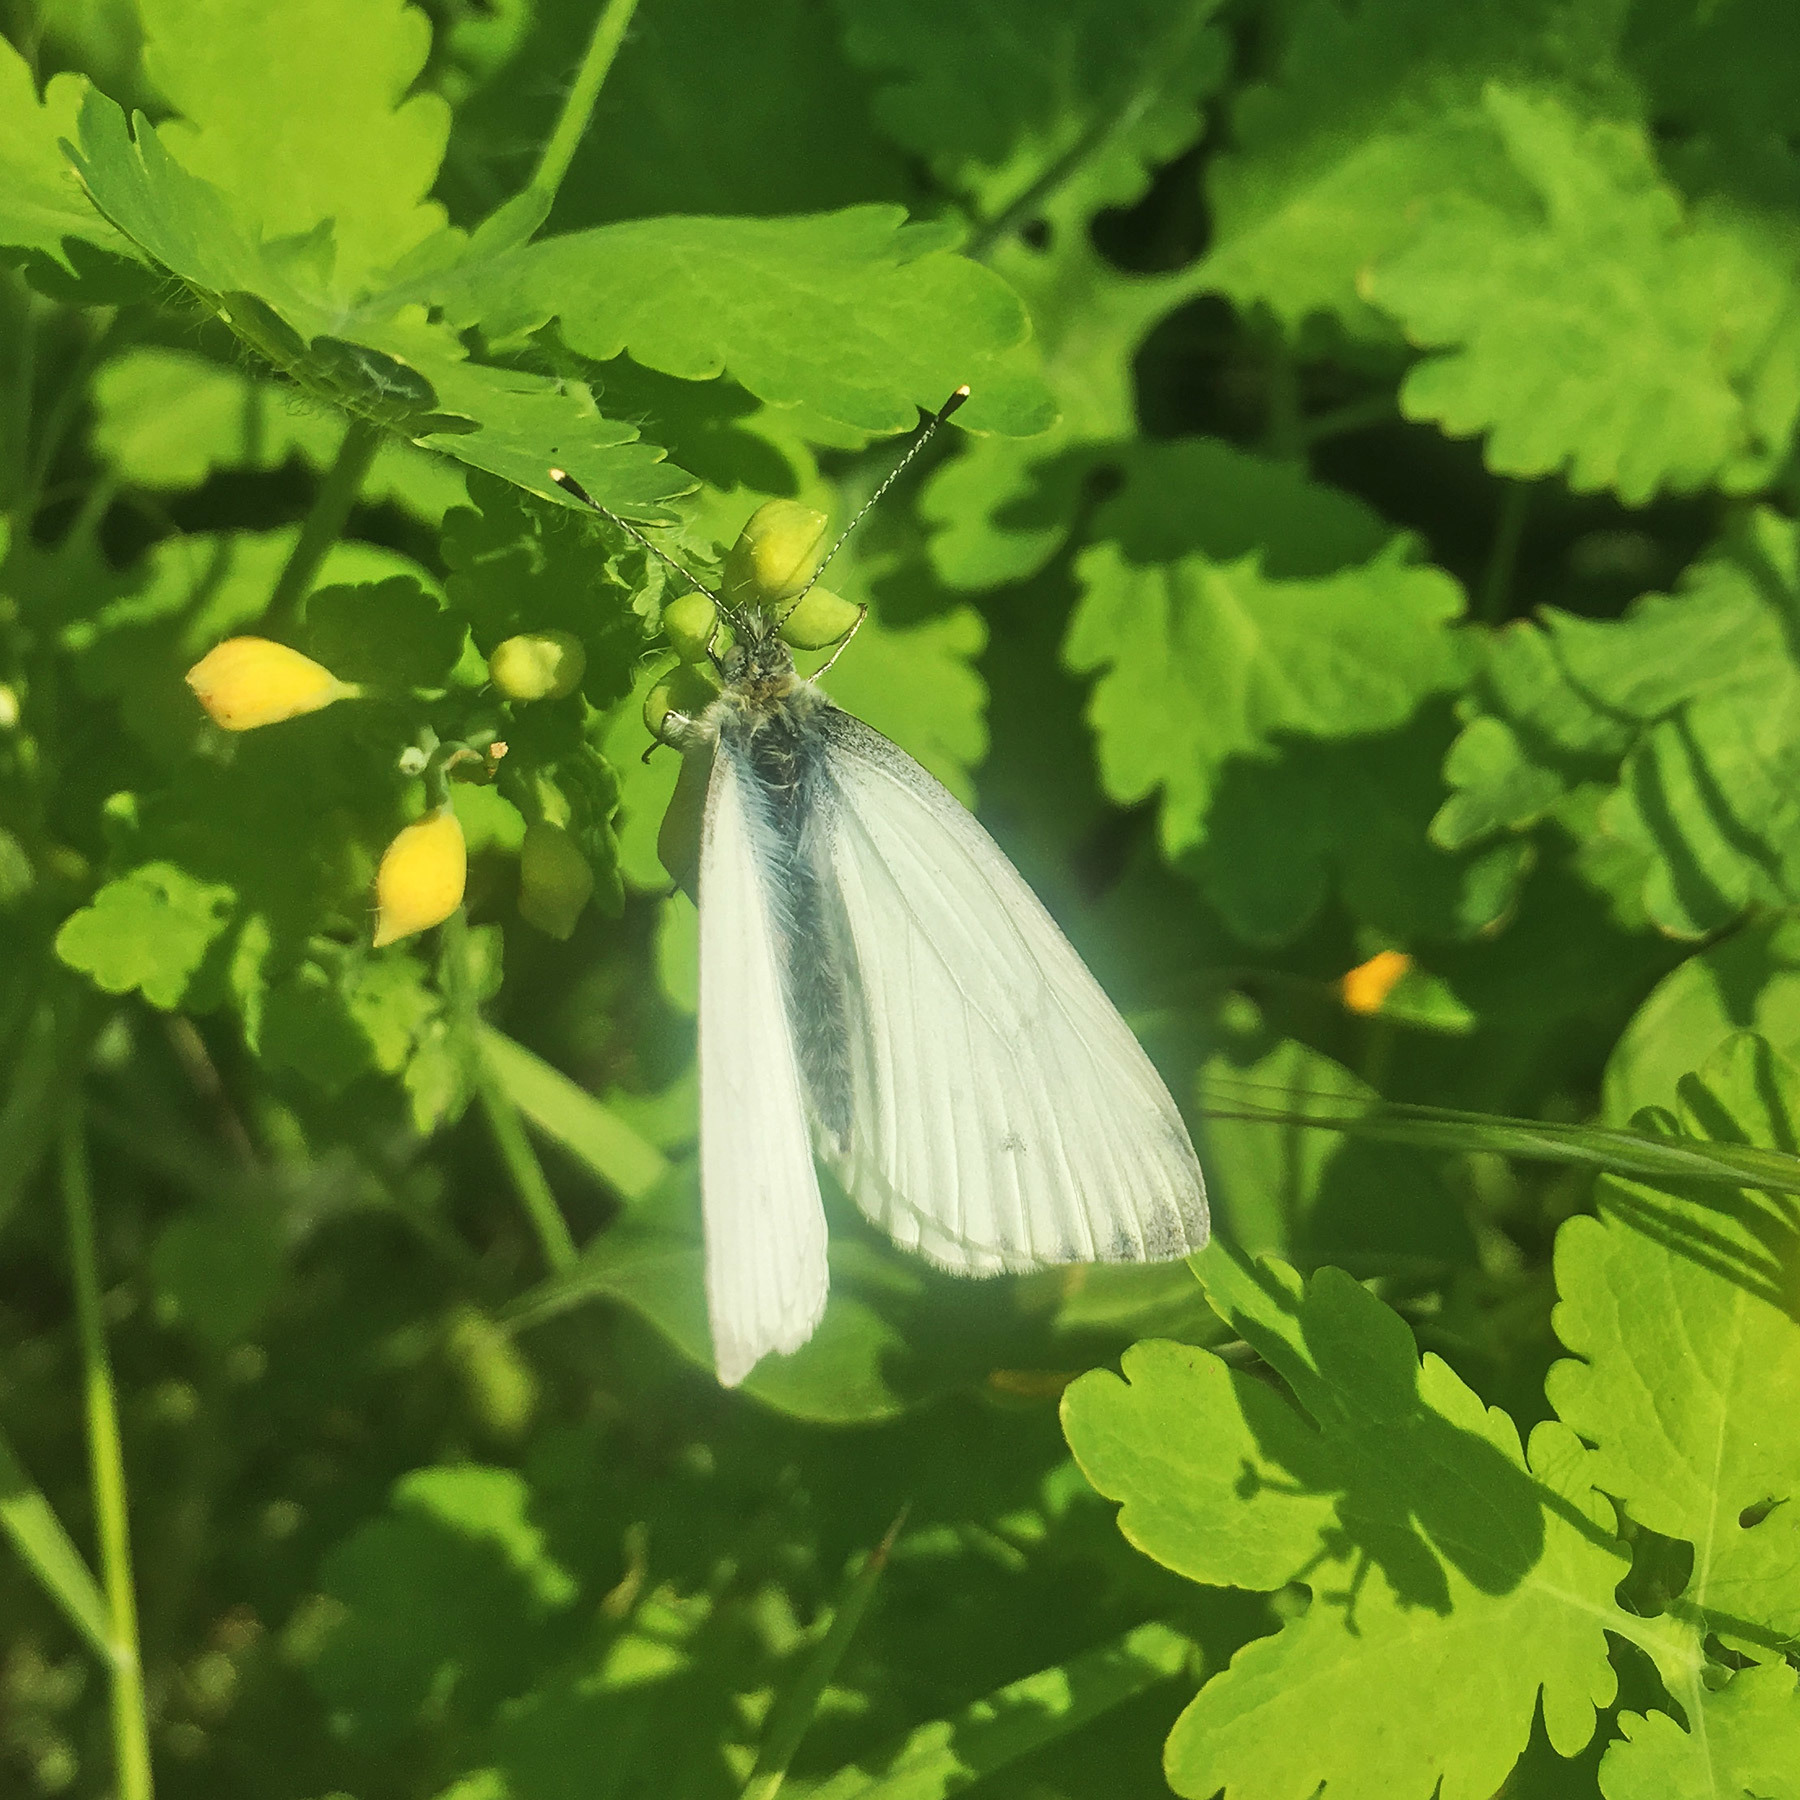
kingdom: Animalia
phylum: Arthropoda
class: Insecta
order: Lepidoptera
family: Pieridae
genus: Pieris
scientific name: Pieris napi
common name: Green-veined white
